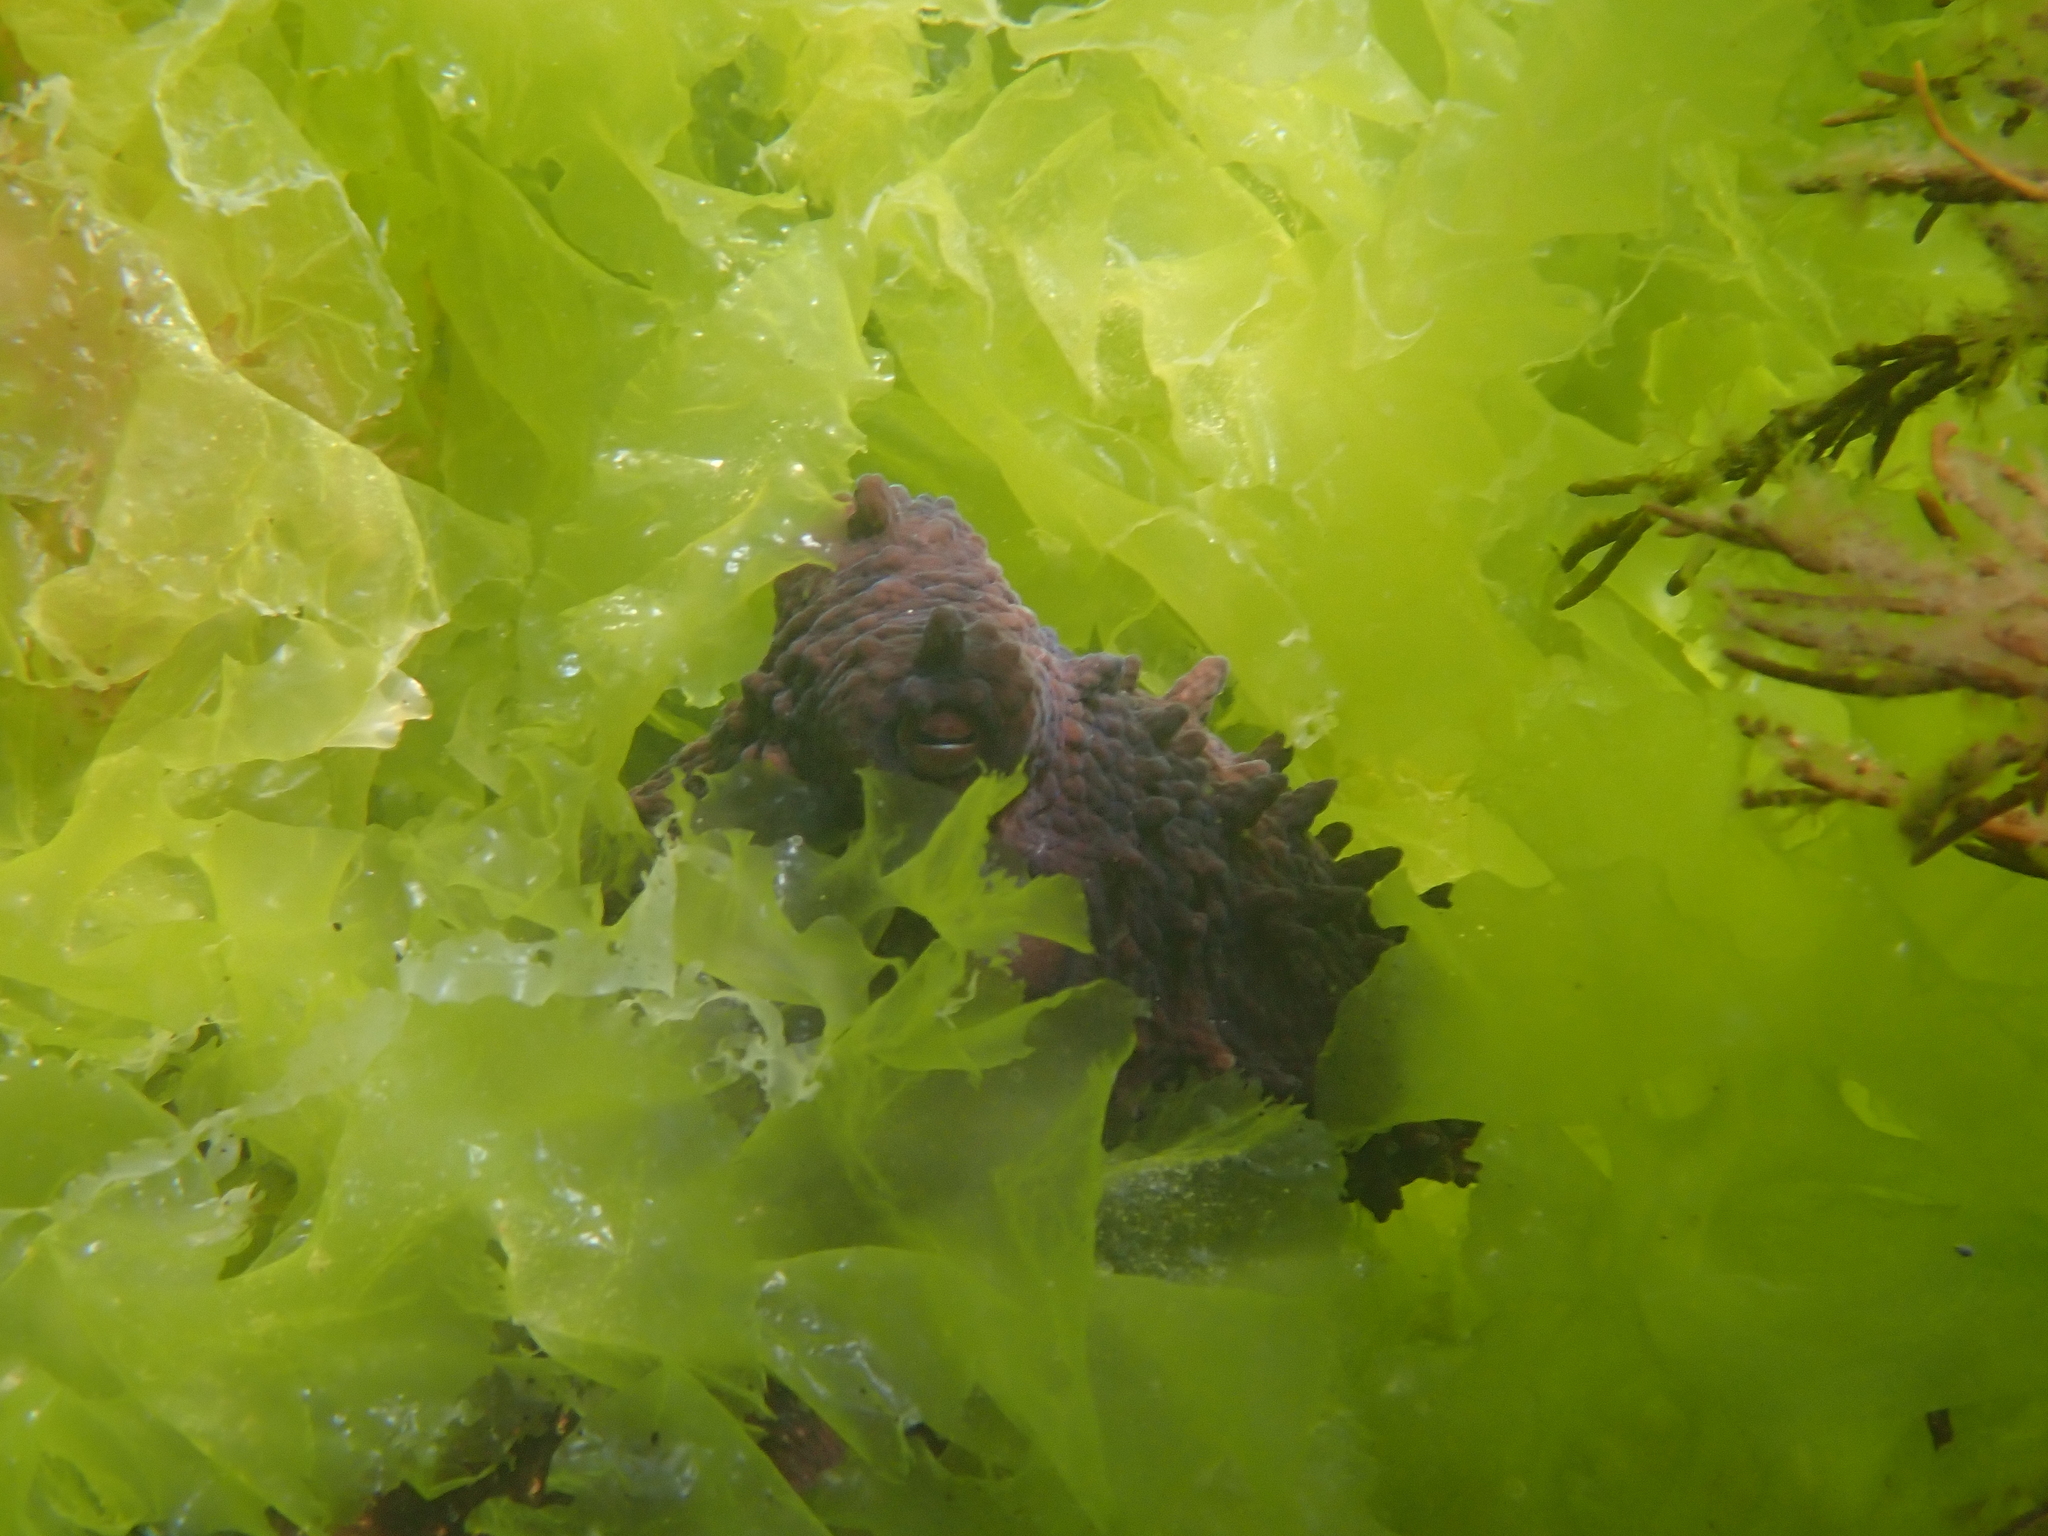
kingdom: Animalia
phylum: Mollusca
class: Cephalopoda
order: Octopoda
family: Octopodidae
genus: Macroctopus
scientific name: Macroctopus maorum
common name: Maori octopus
